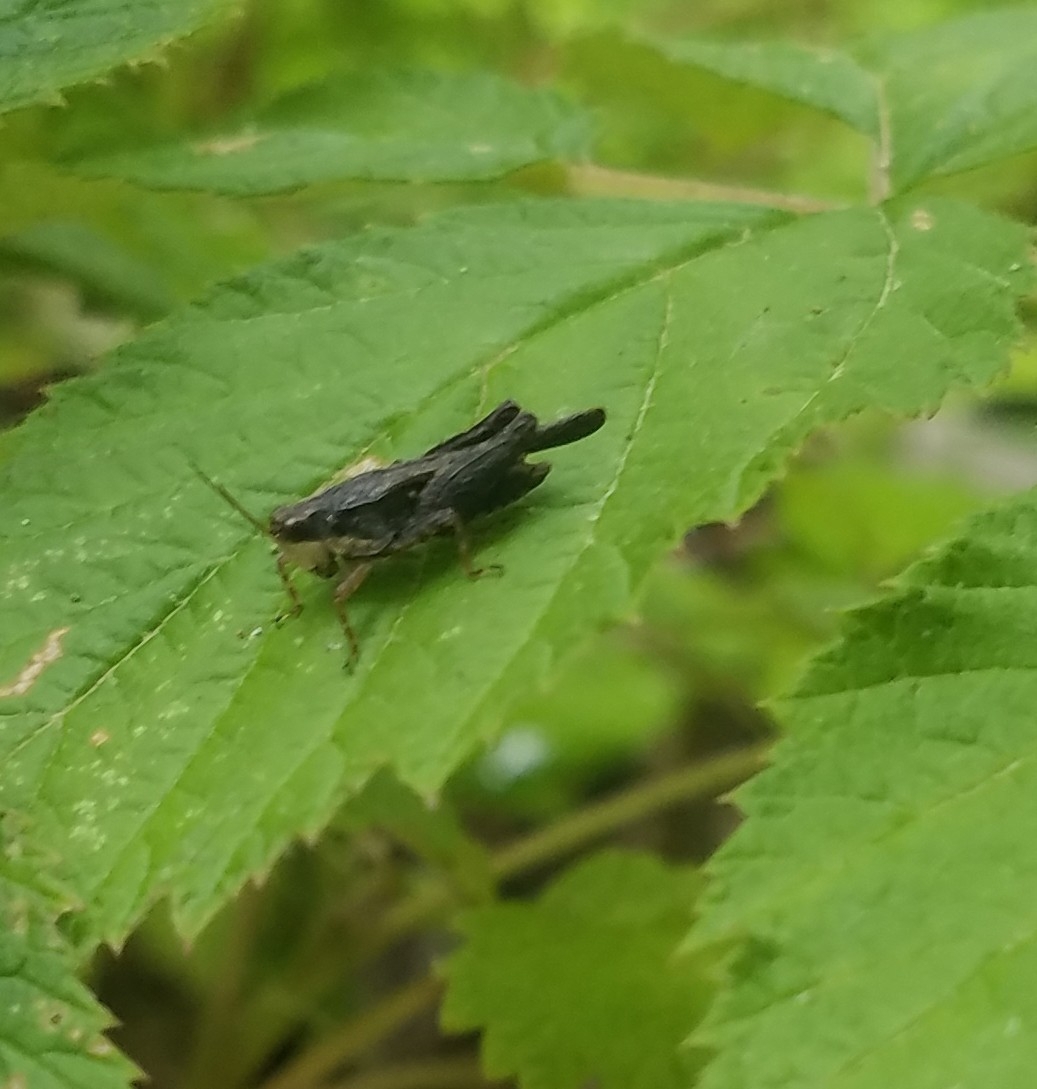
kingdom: Animalia
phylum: Arthropoda
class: Insecta
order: Orthoptera
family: Tetrigidae
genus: Tettigidea
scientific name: Tettigidea laterale
